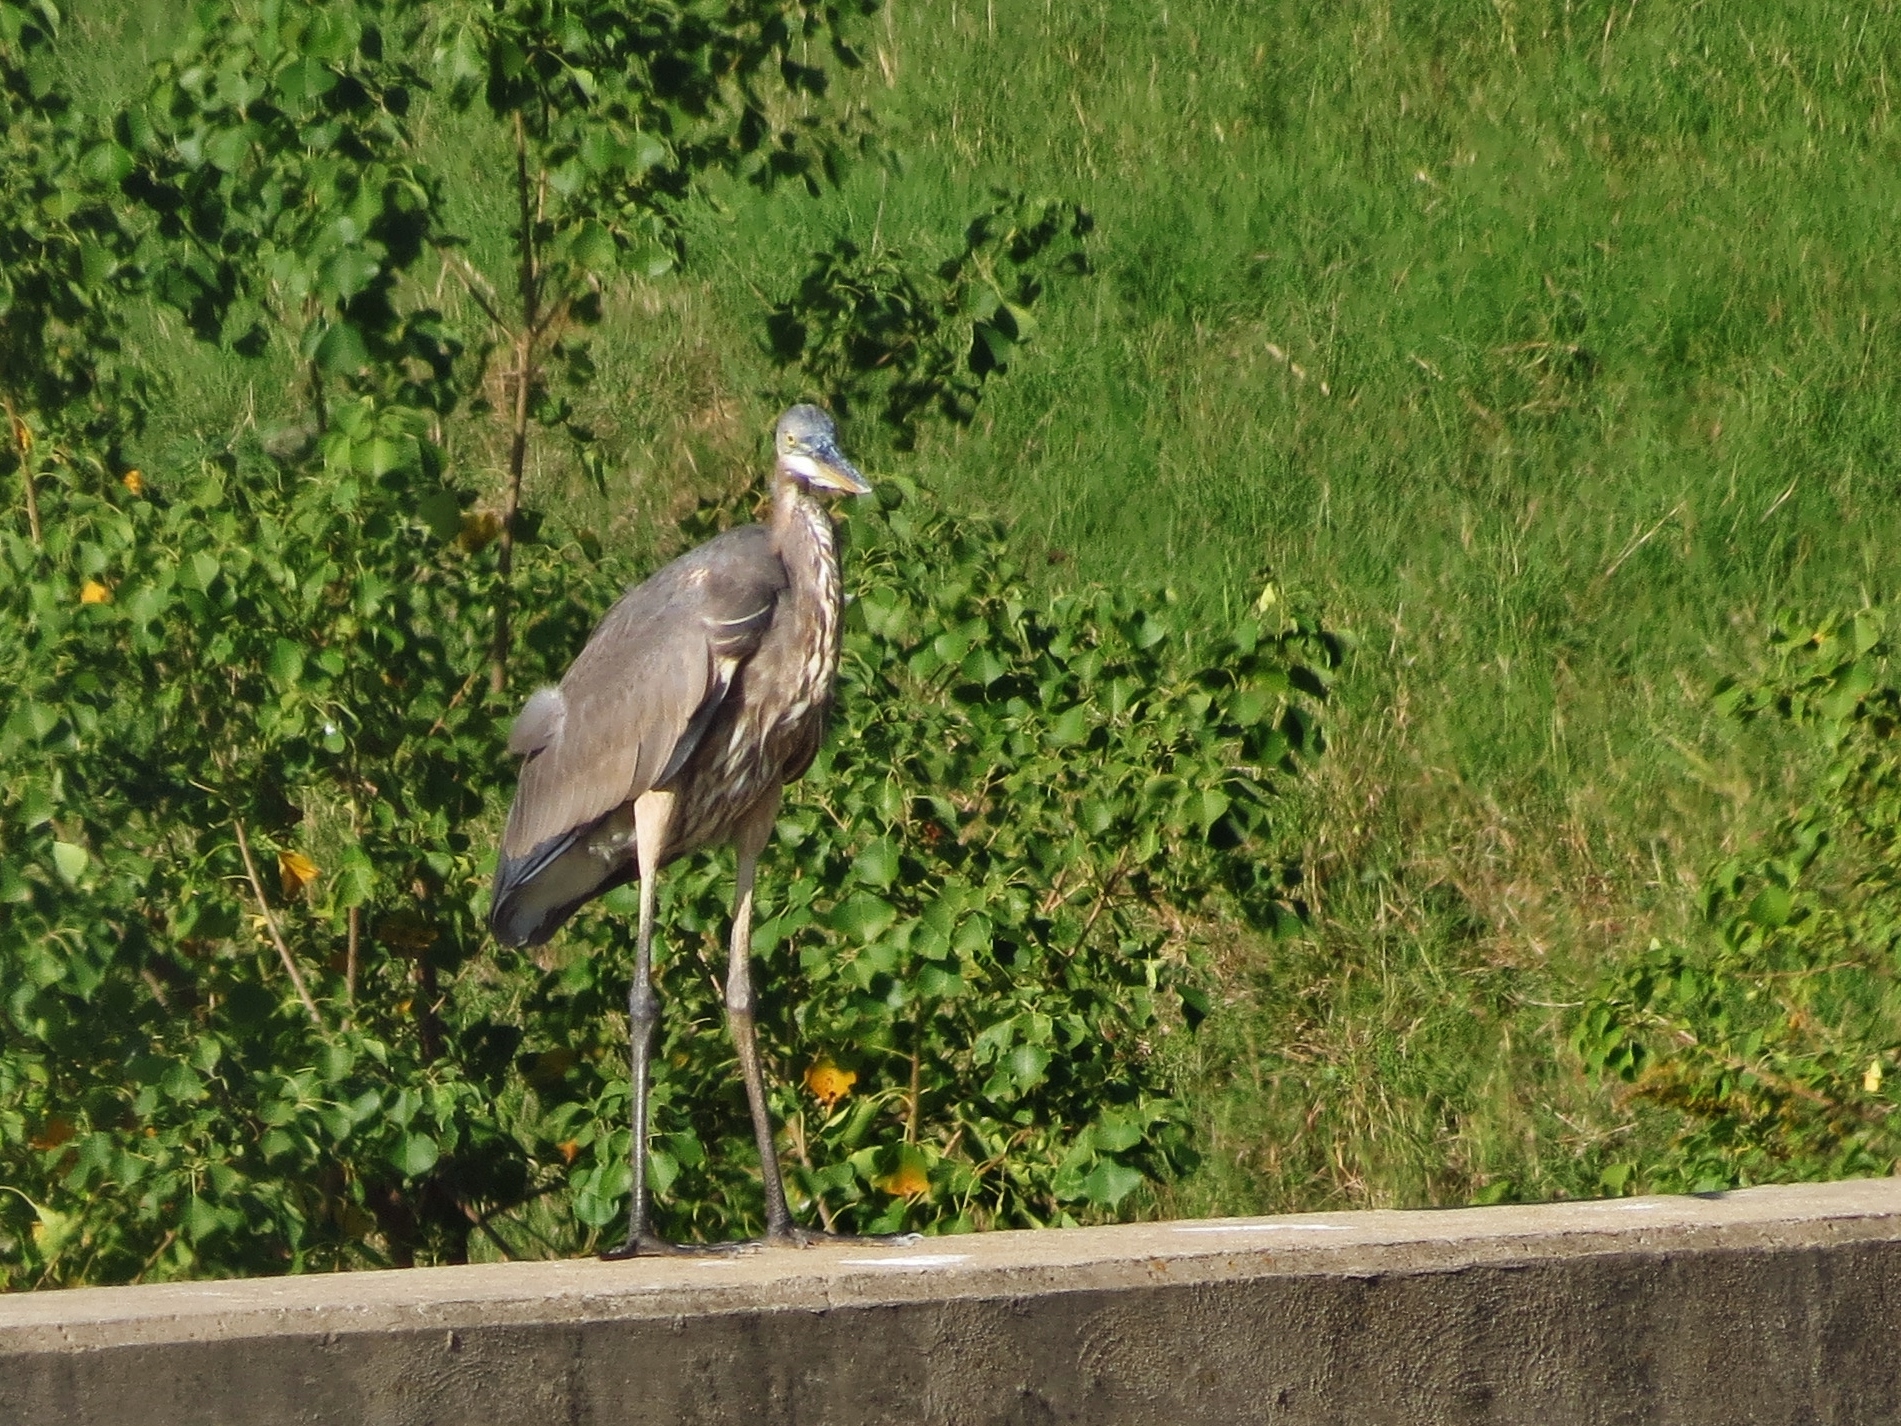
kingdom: Animalia
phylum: Chordata
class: Aves
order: Pelecaniformes
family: Ardeidae
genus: Ardea
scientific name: Ardea herodias
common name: Great blue heron
